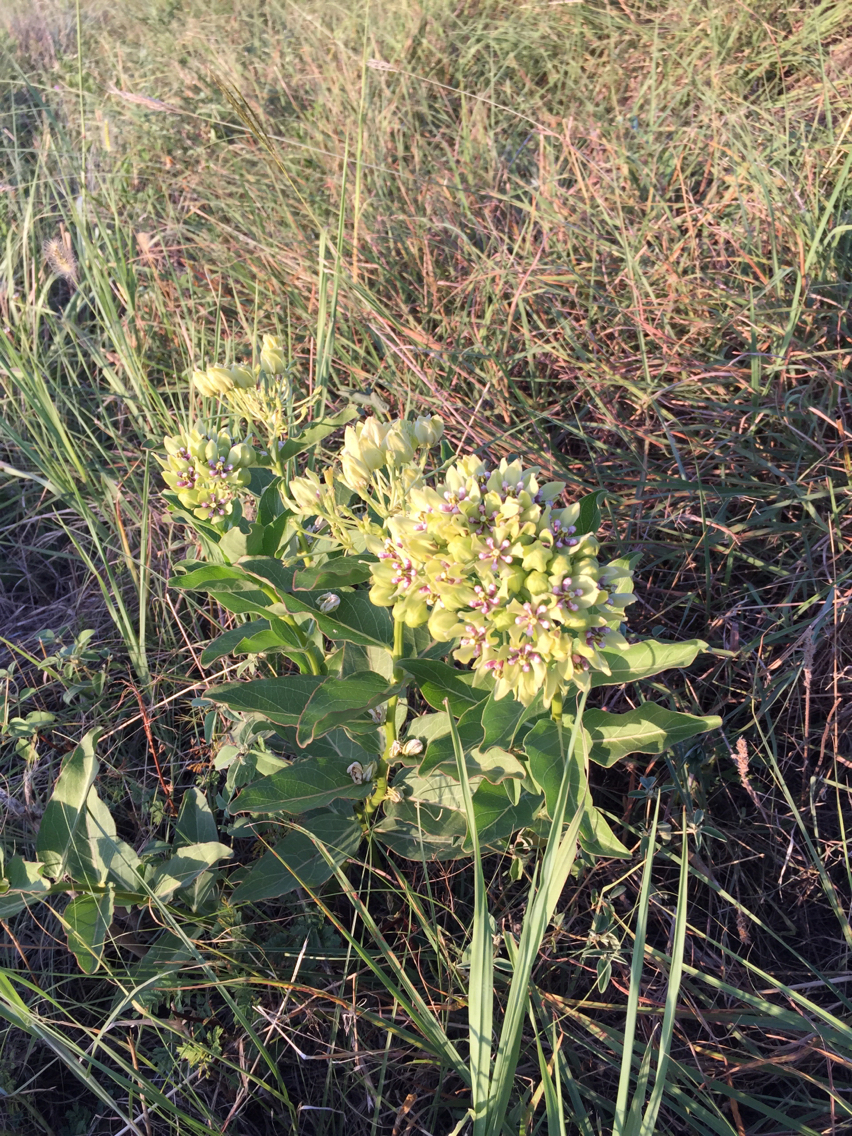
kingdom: Plantae
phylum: Tracheophyta
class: Magnoliopsida
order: Gentianales
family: Apocynaceae
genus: Asclepias
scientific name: Asclepias viridis
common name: Antelope-horns
